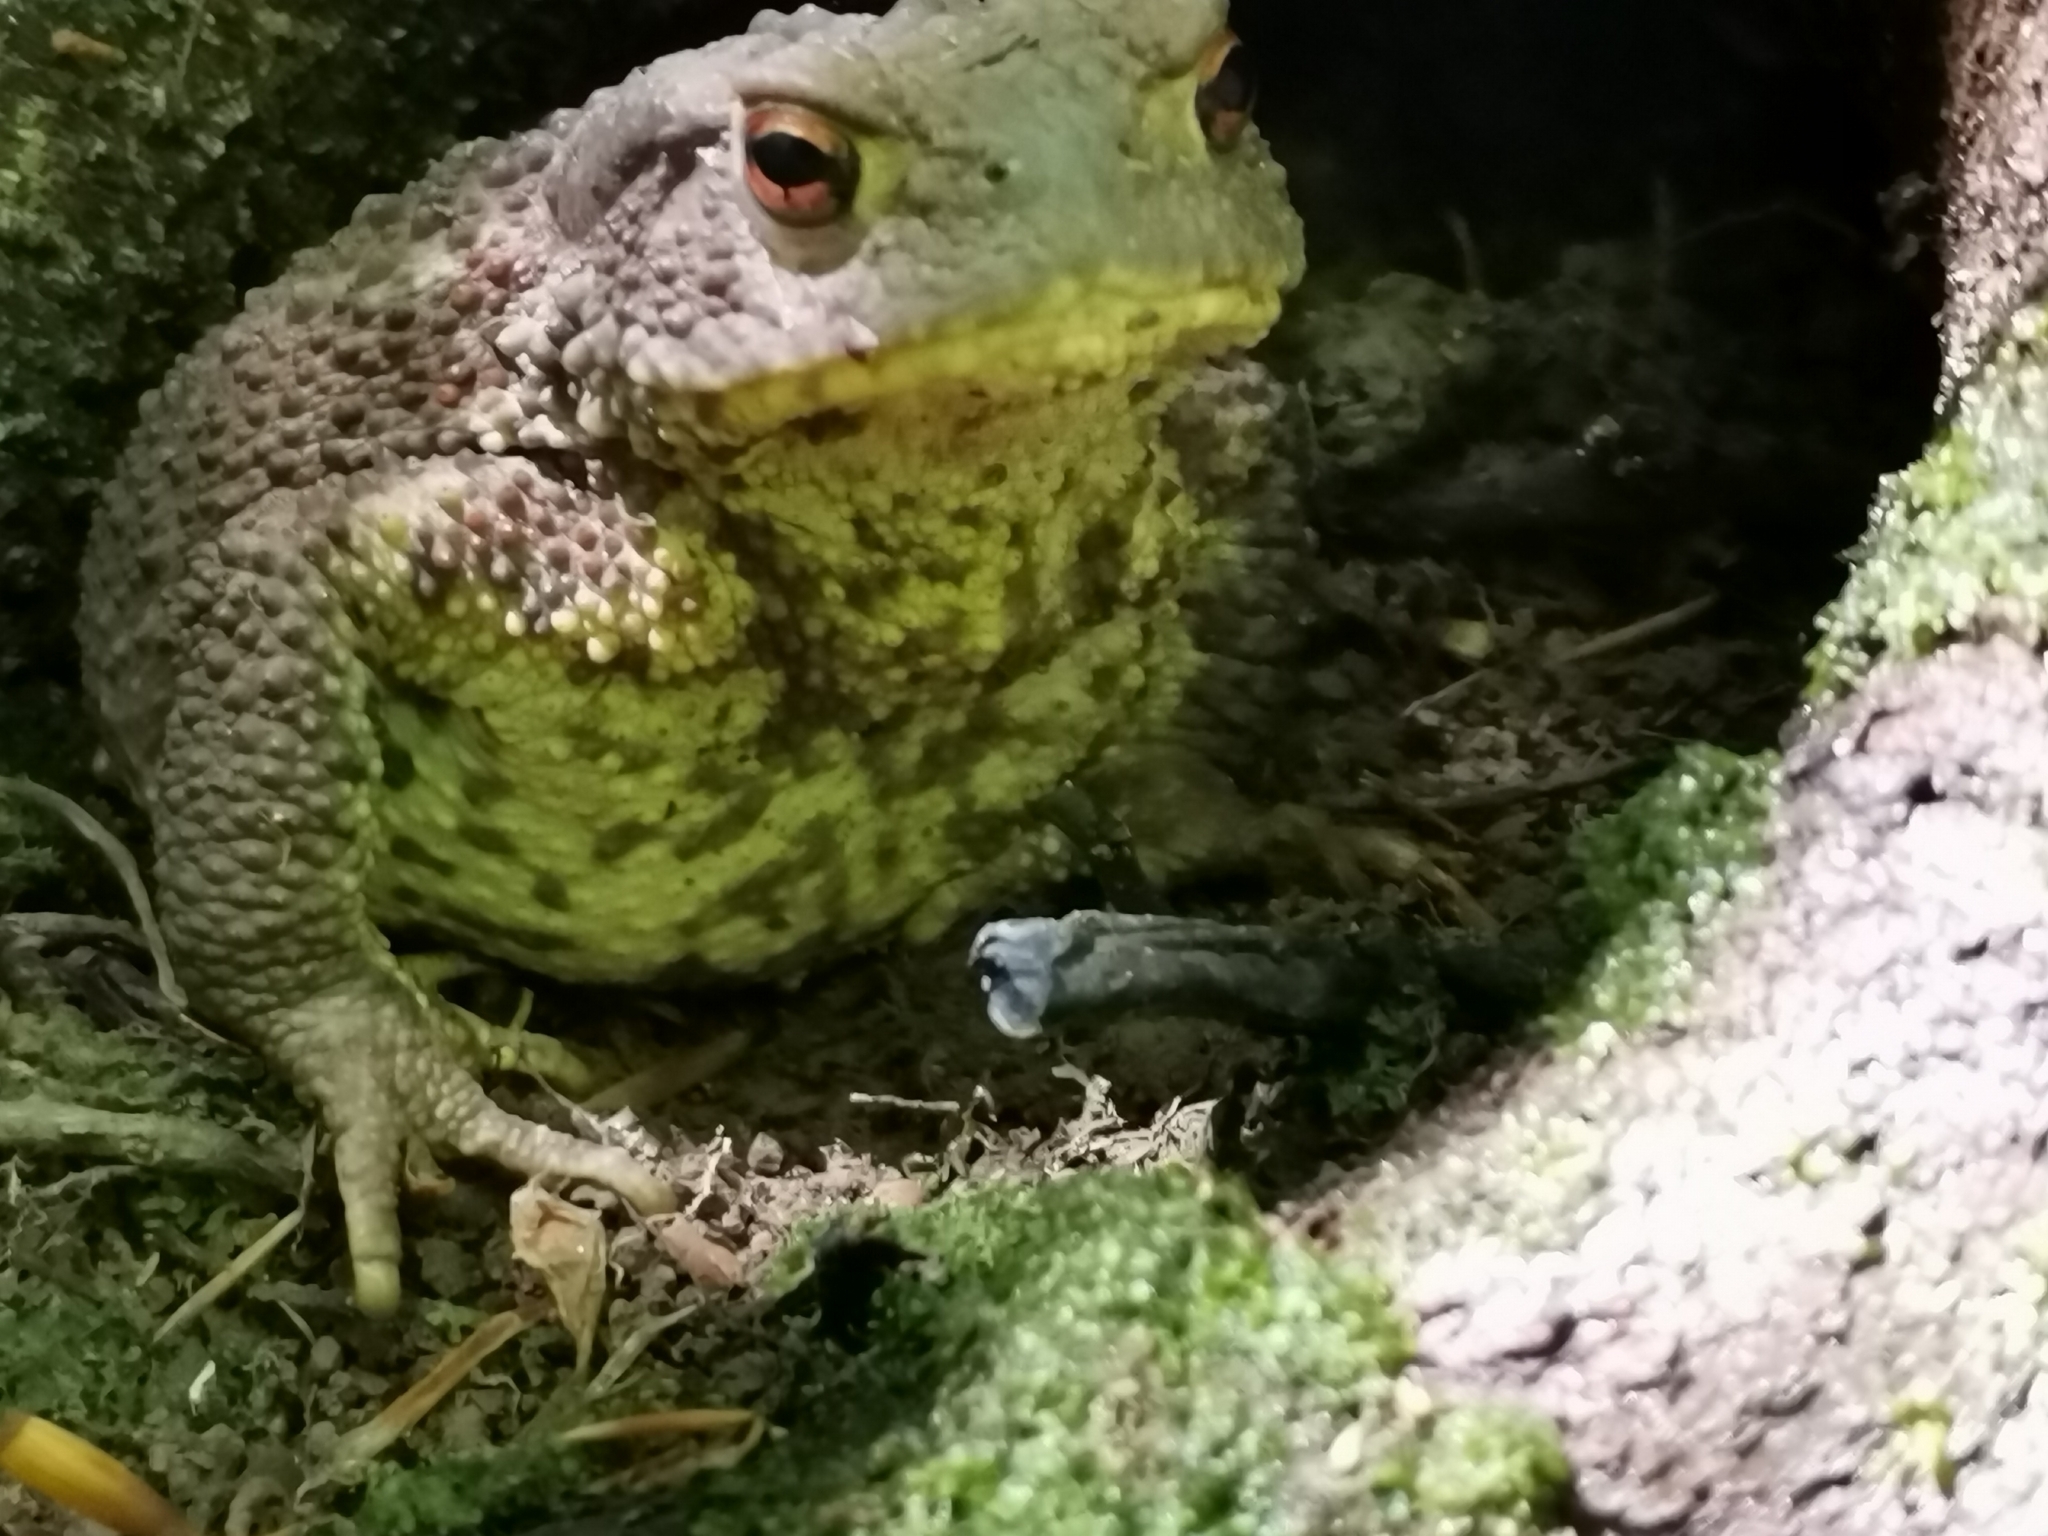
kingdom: Animalia
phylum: Chordata
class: Amphibia
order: Anura
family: Bufonidae
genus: Bufo
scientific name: Bufo bufo
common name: Common toad
